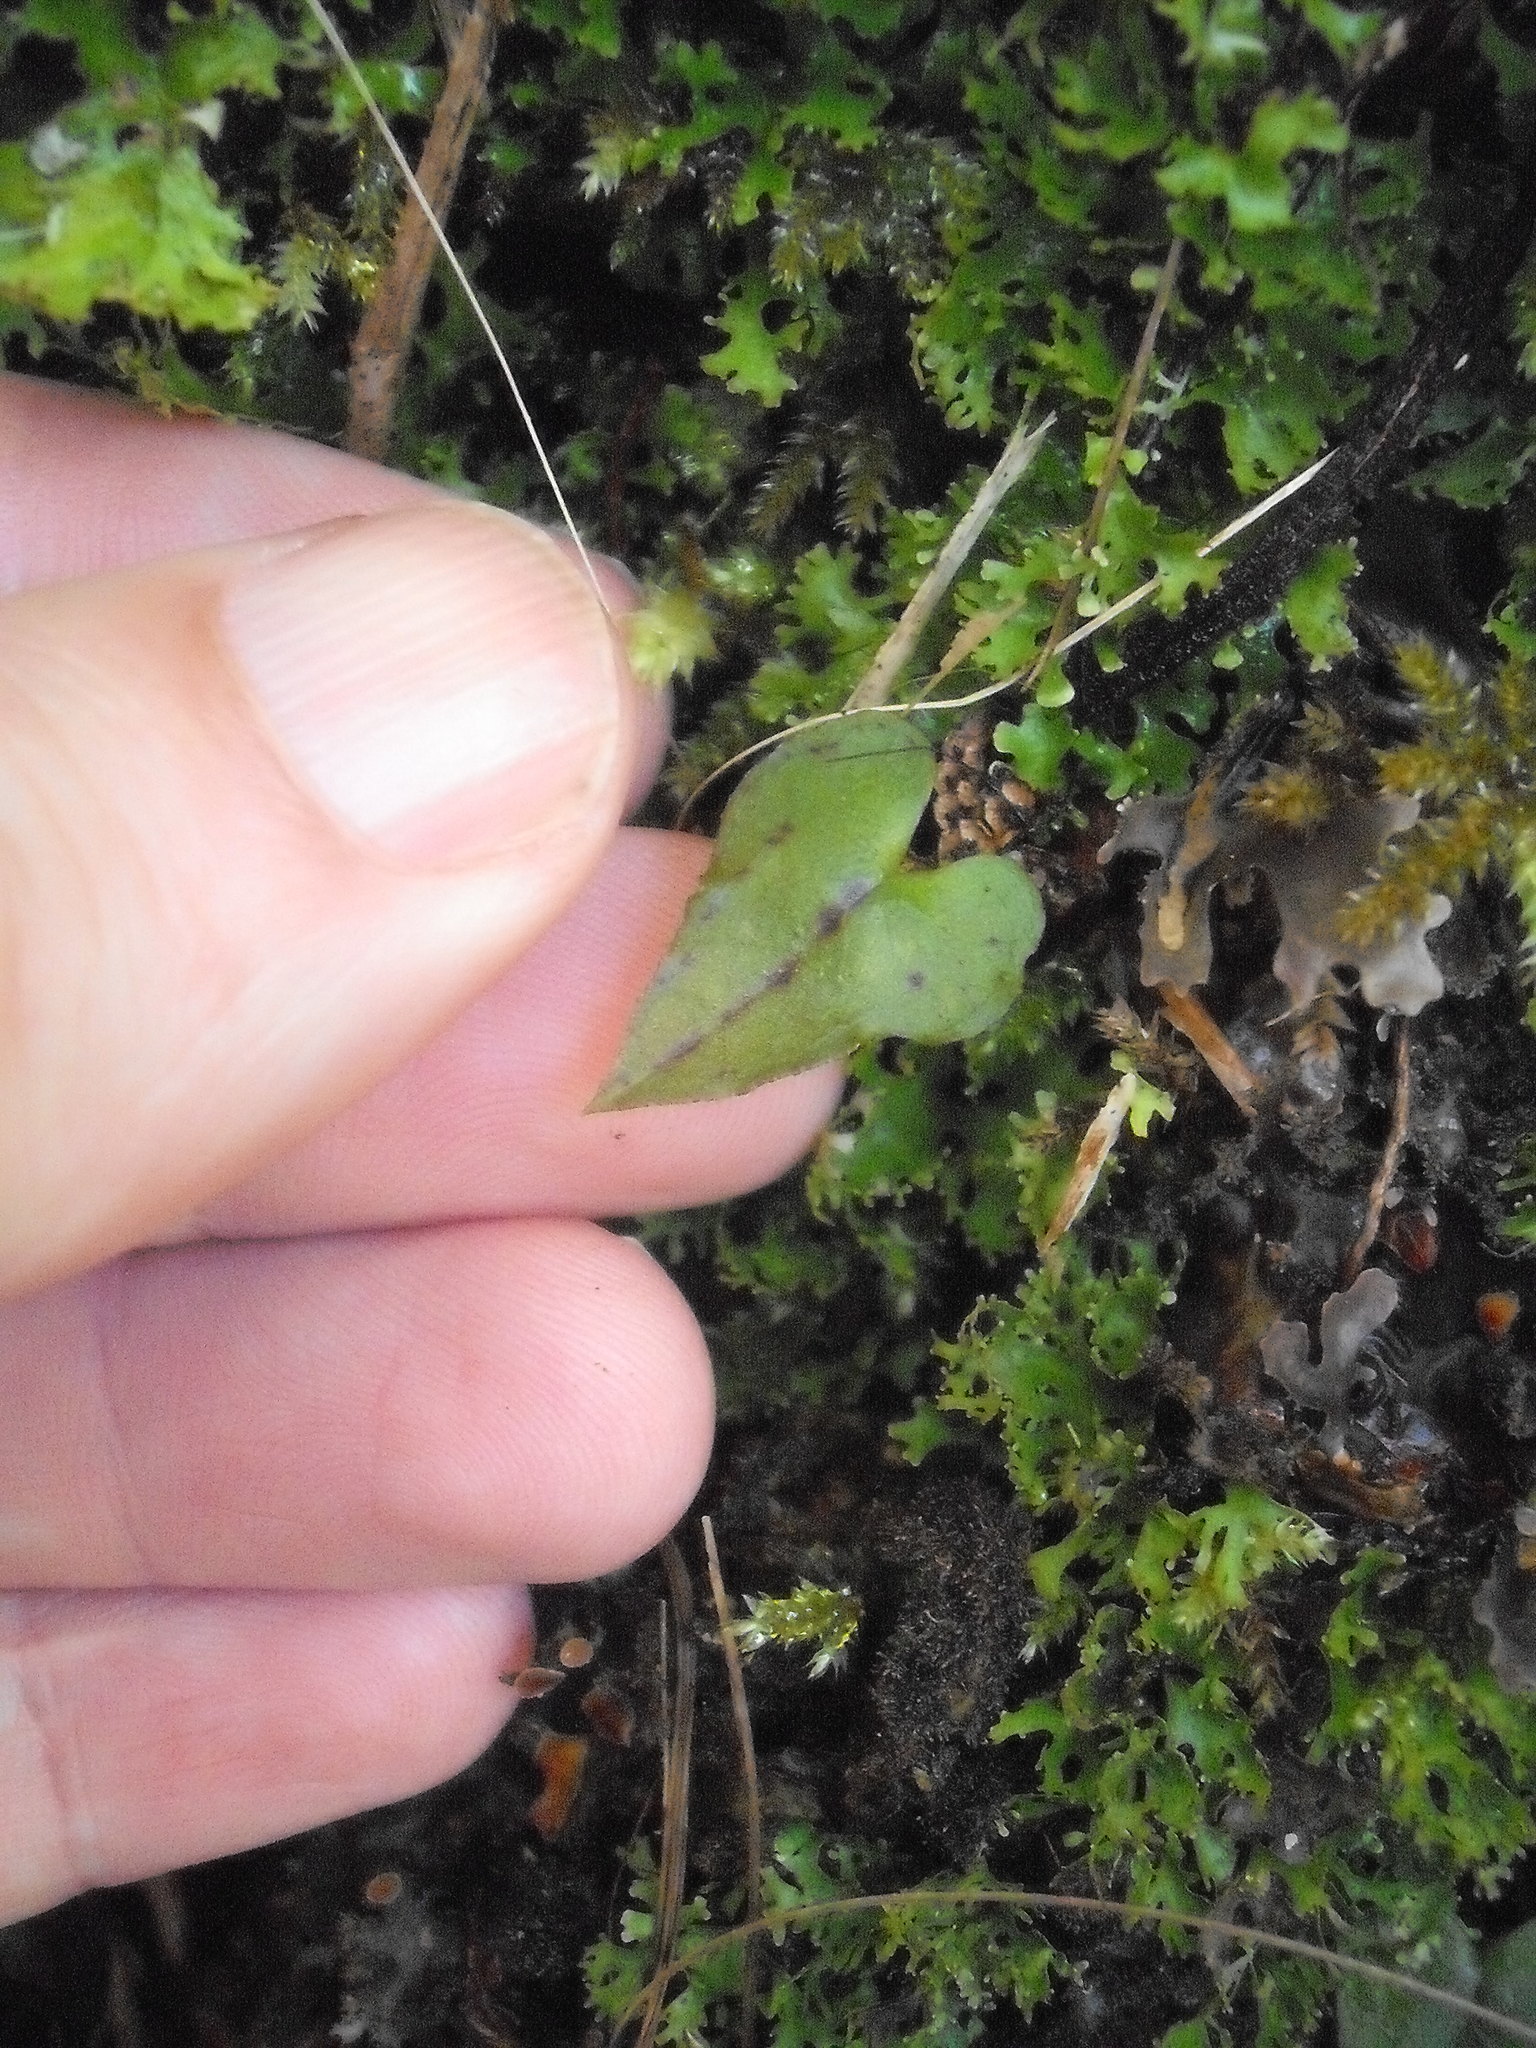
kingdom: Plantae
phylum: Tracheophyta
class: Liliopsida
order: Asparagales
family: Orchidaceae
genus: Corybas
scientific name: Corybas acuminatus
